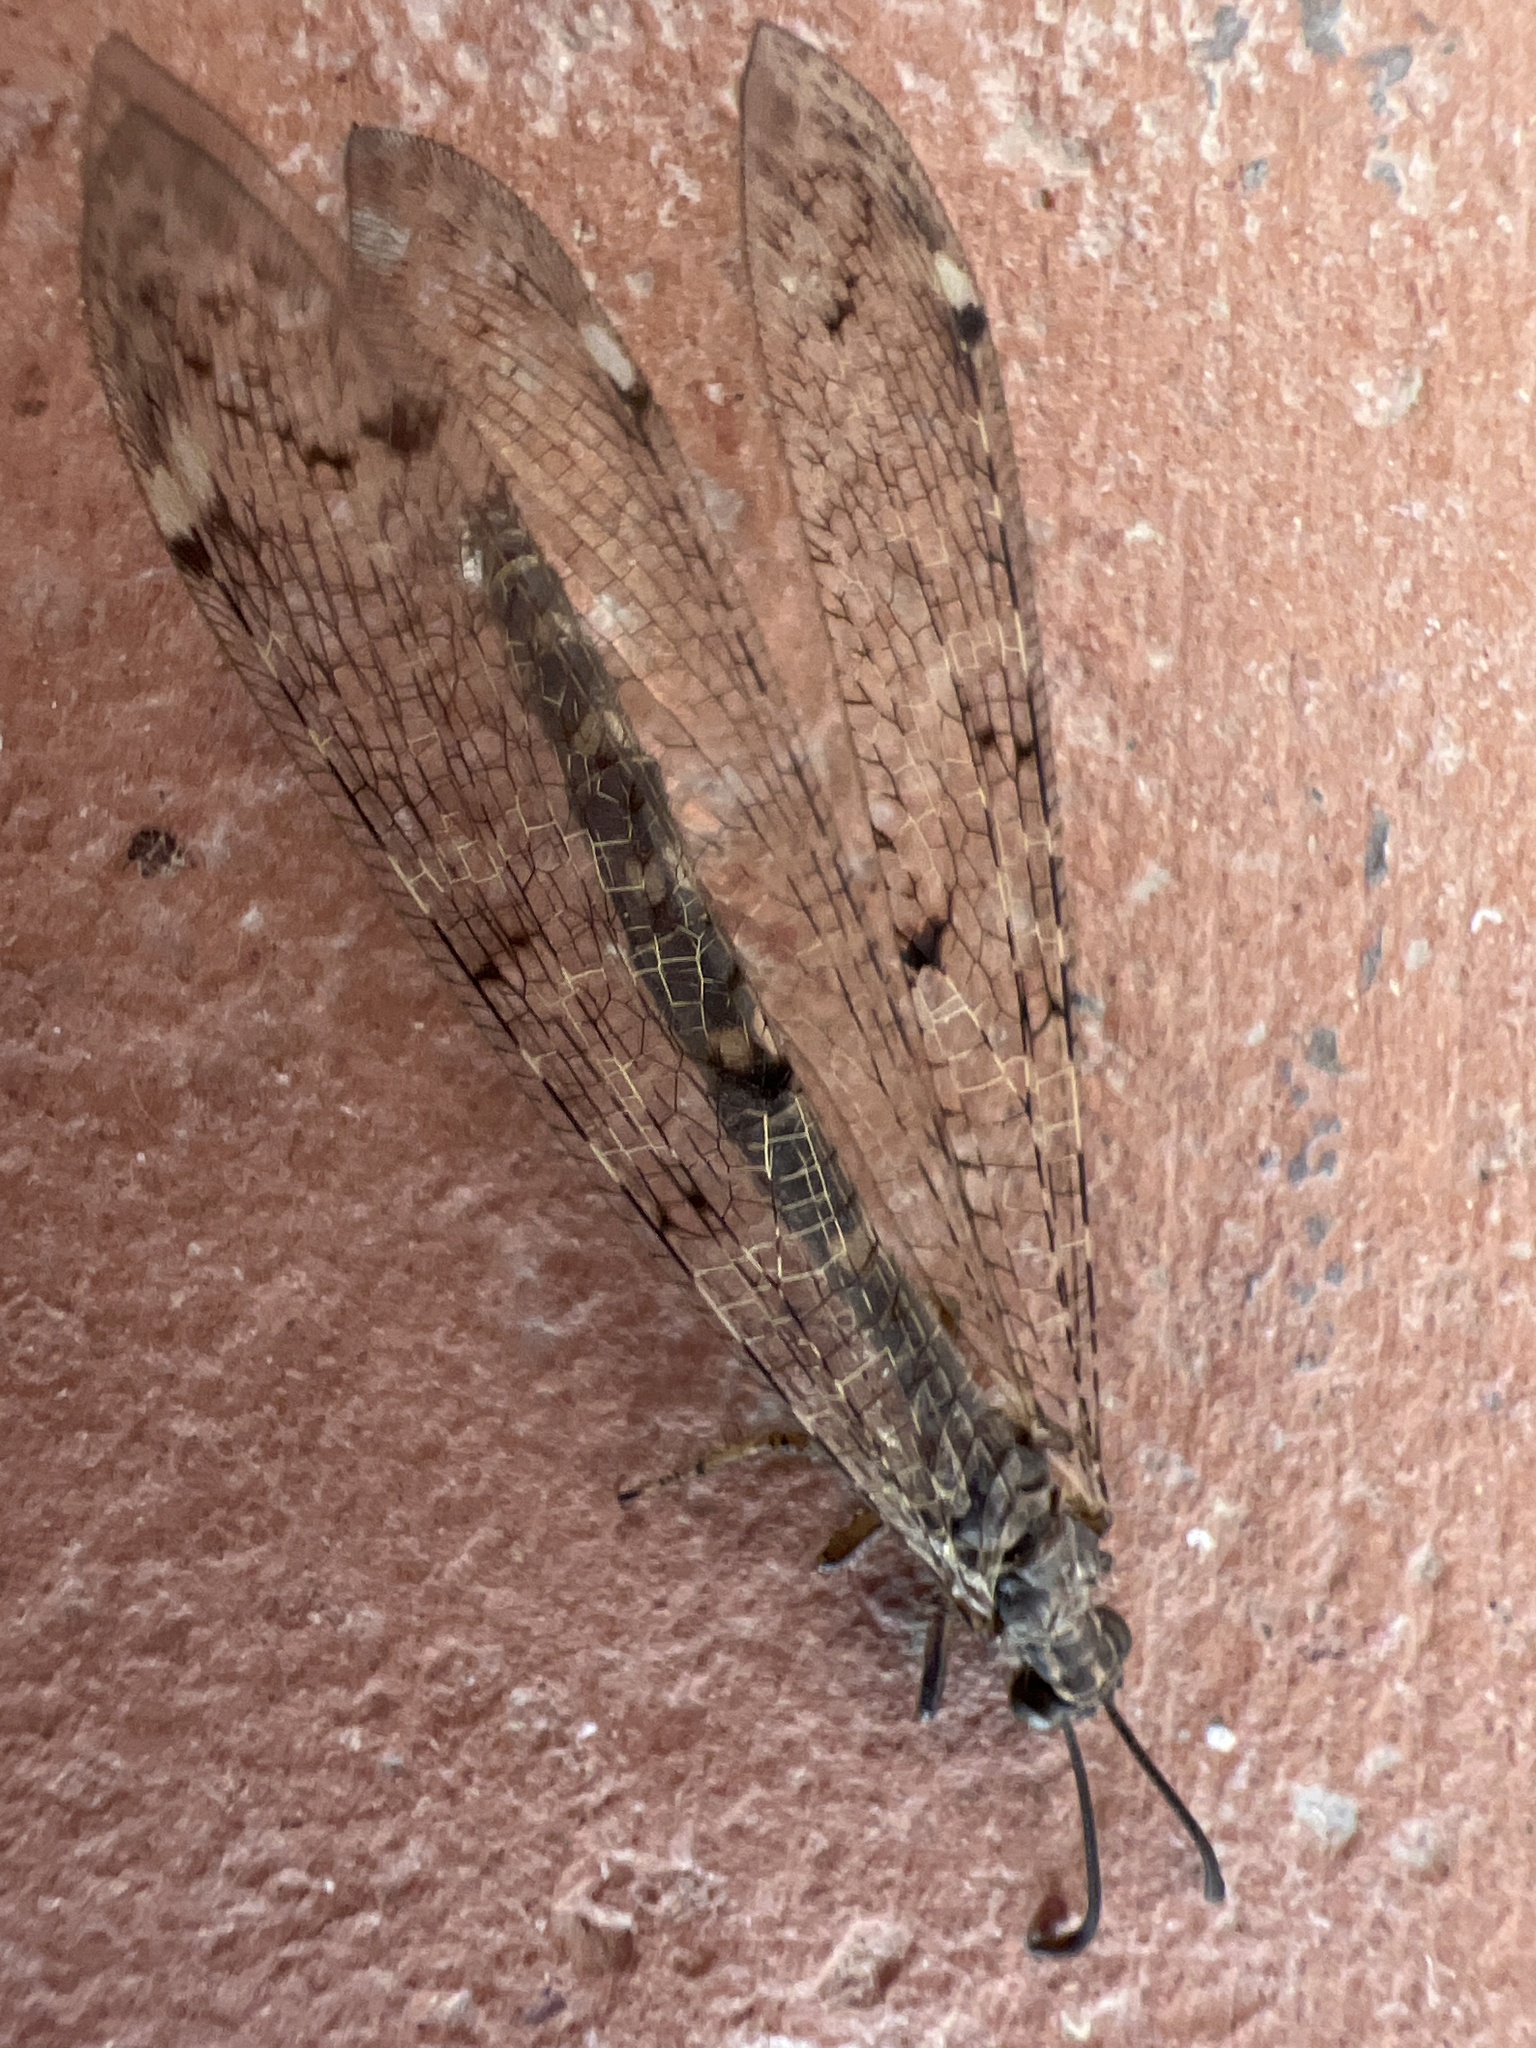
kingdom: Animalia
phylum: Arthropoda
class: Insecta
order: Neuroptera
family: Myrmeleontidae
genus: Distoleon
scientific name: Distoleon tetragrammicus
